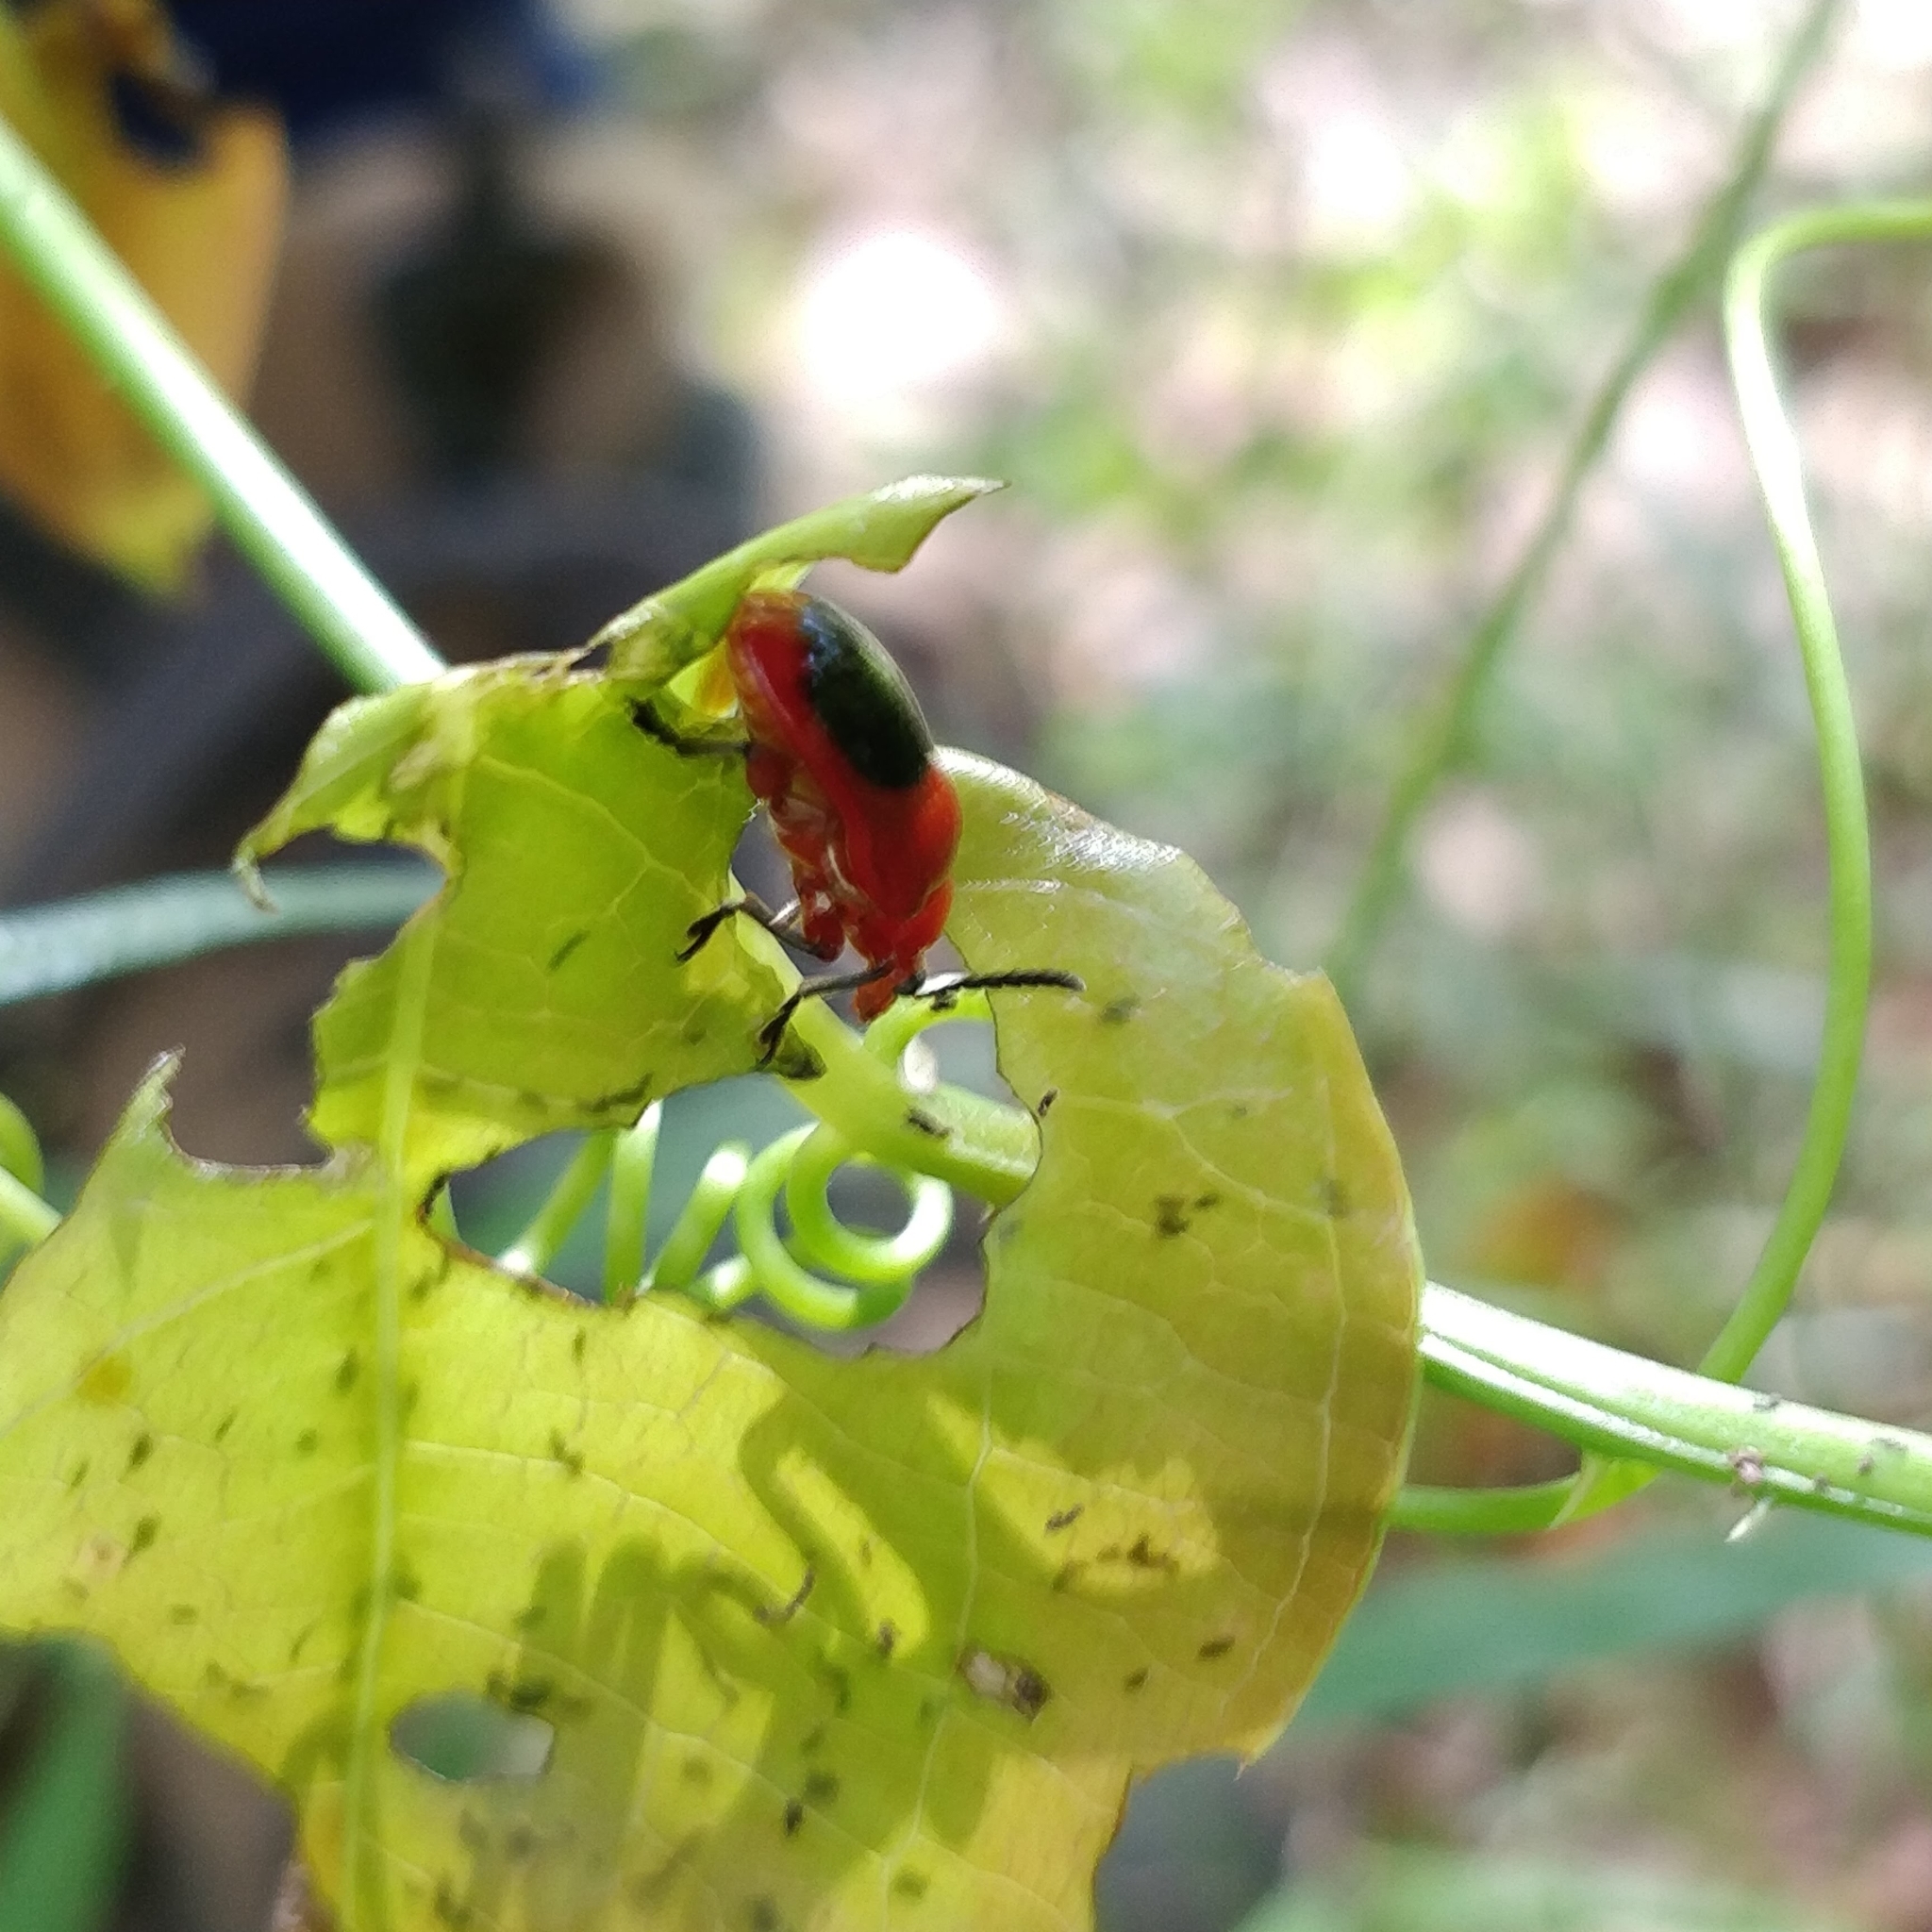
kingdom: Animalia
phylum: Arthropoda
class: Insecta
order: Coleoptera
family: Chrysomelidae
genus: Lilioceris
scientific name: Lilioceris
